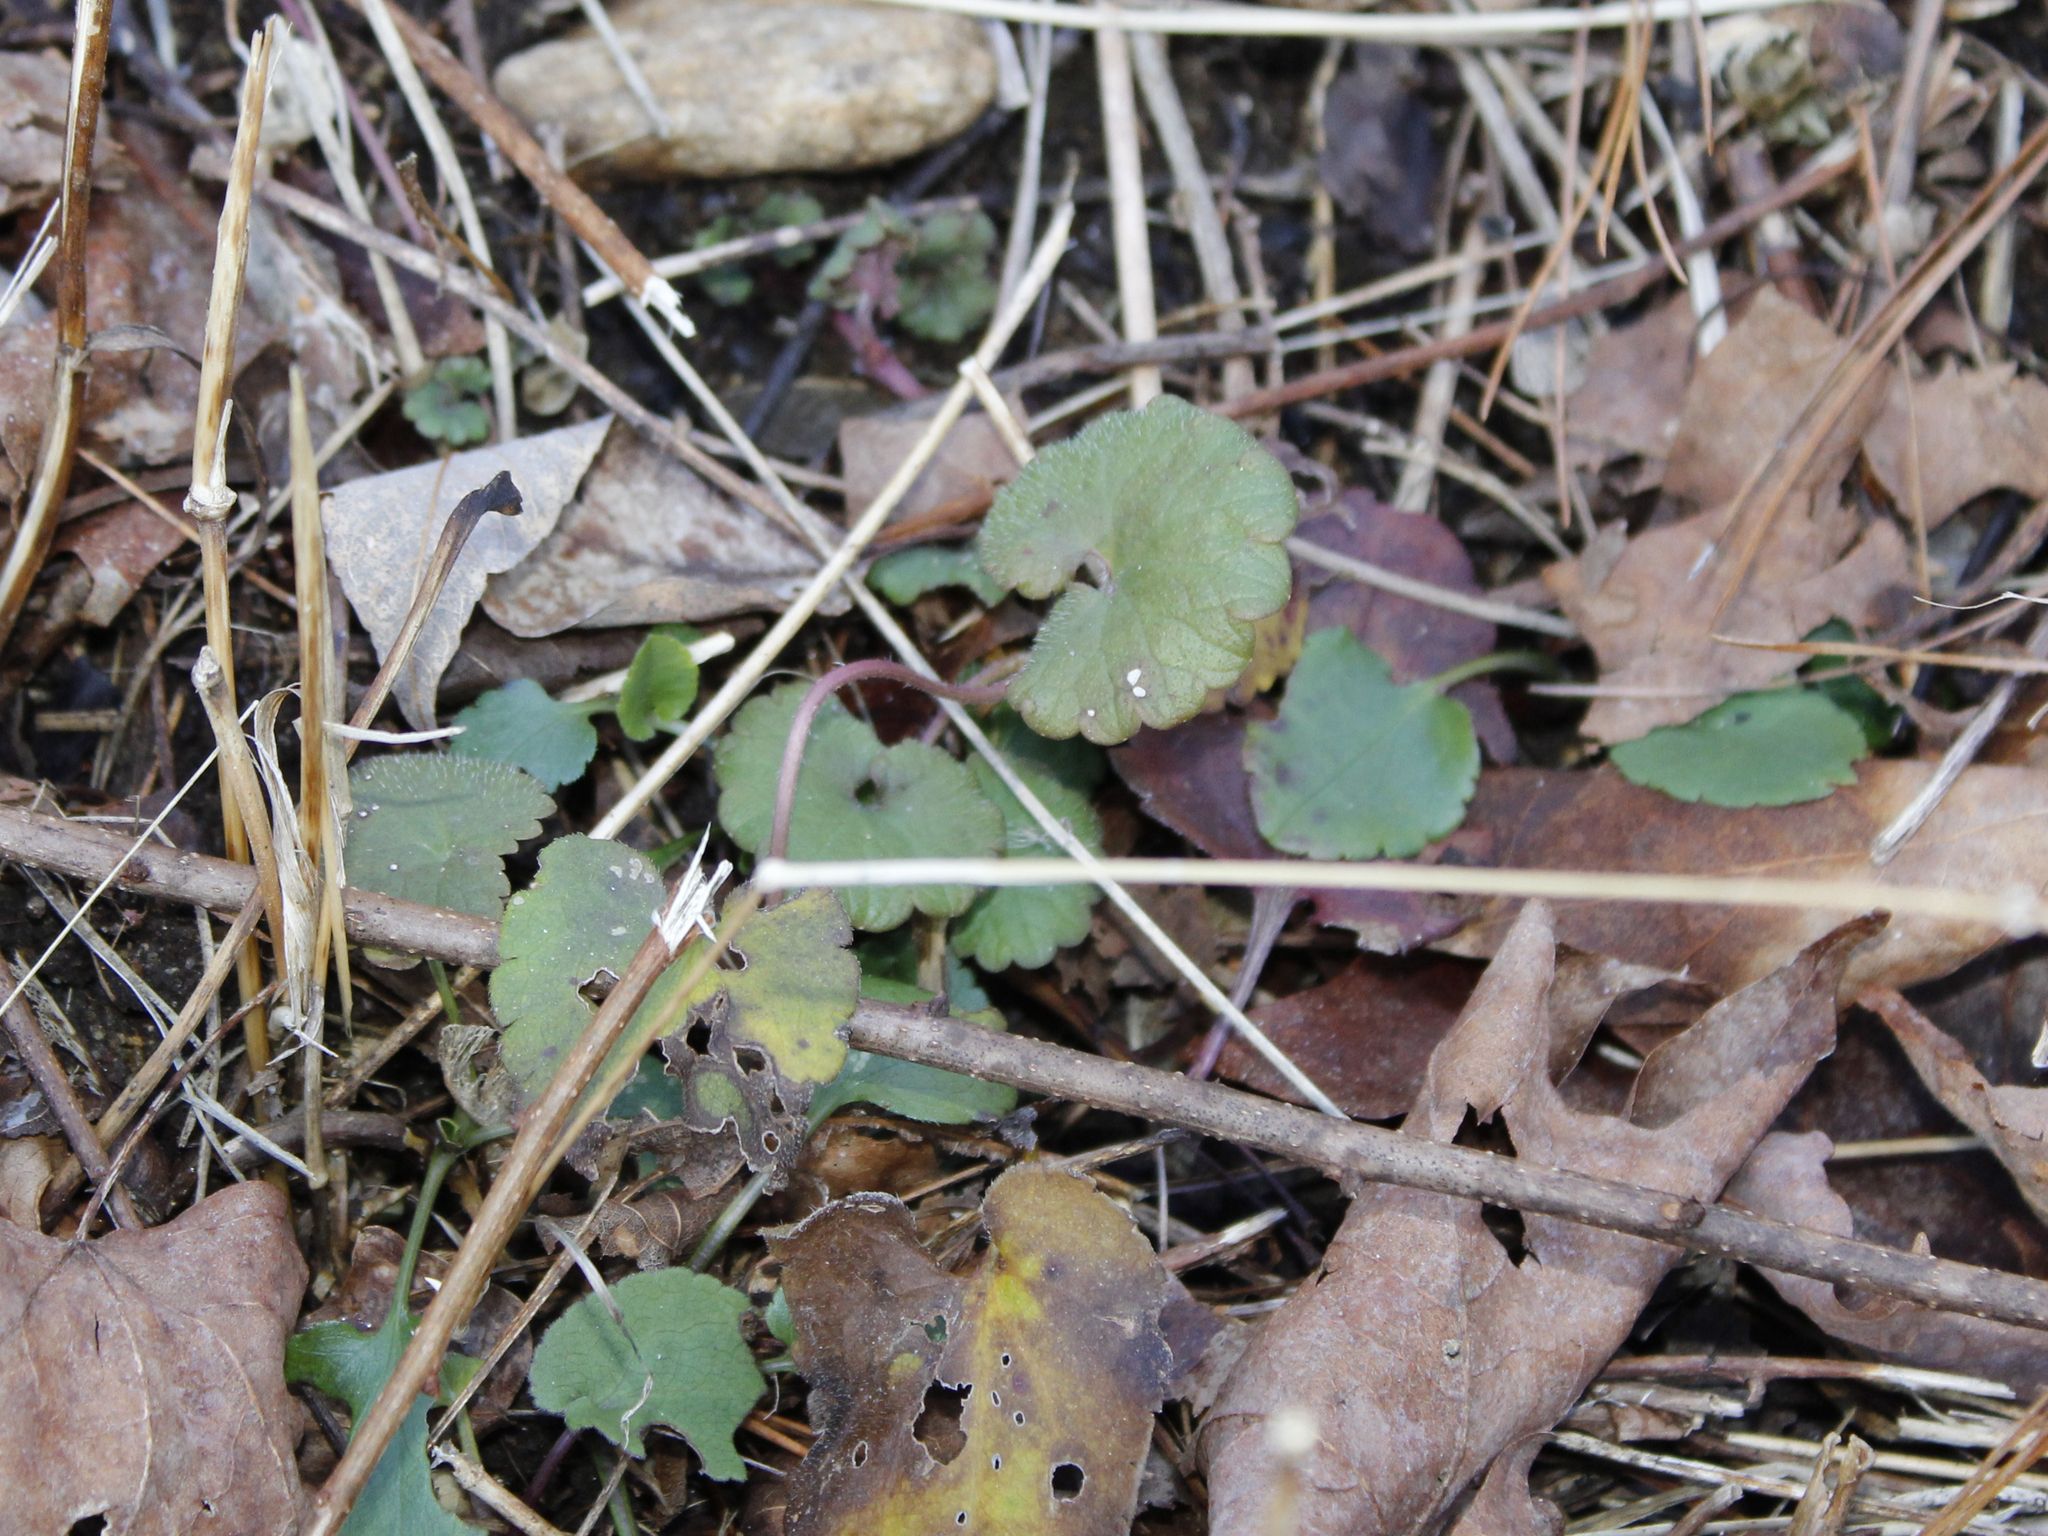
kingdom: Plantae
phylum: Tracheophyta
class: Magnoliopsida
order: Lamiales
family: Lamiaceae
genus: Glechoma
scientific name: Glechoma hederacea
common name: Ground ivy
